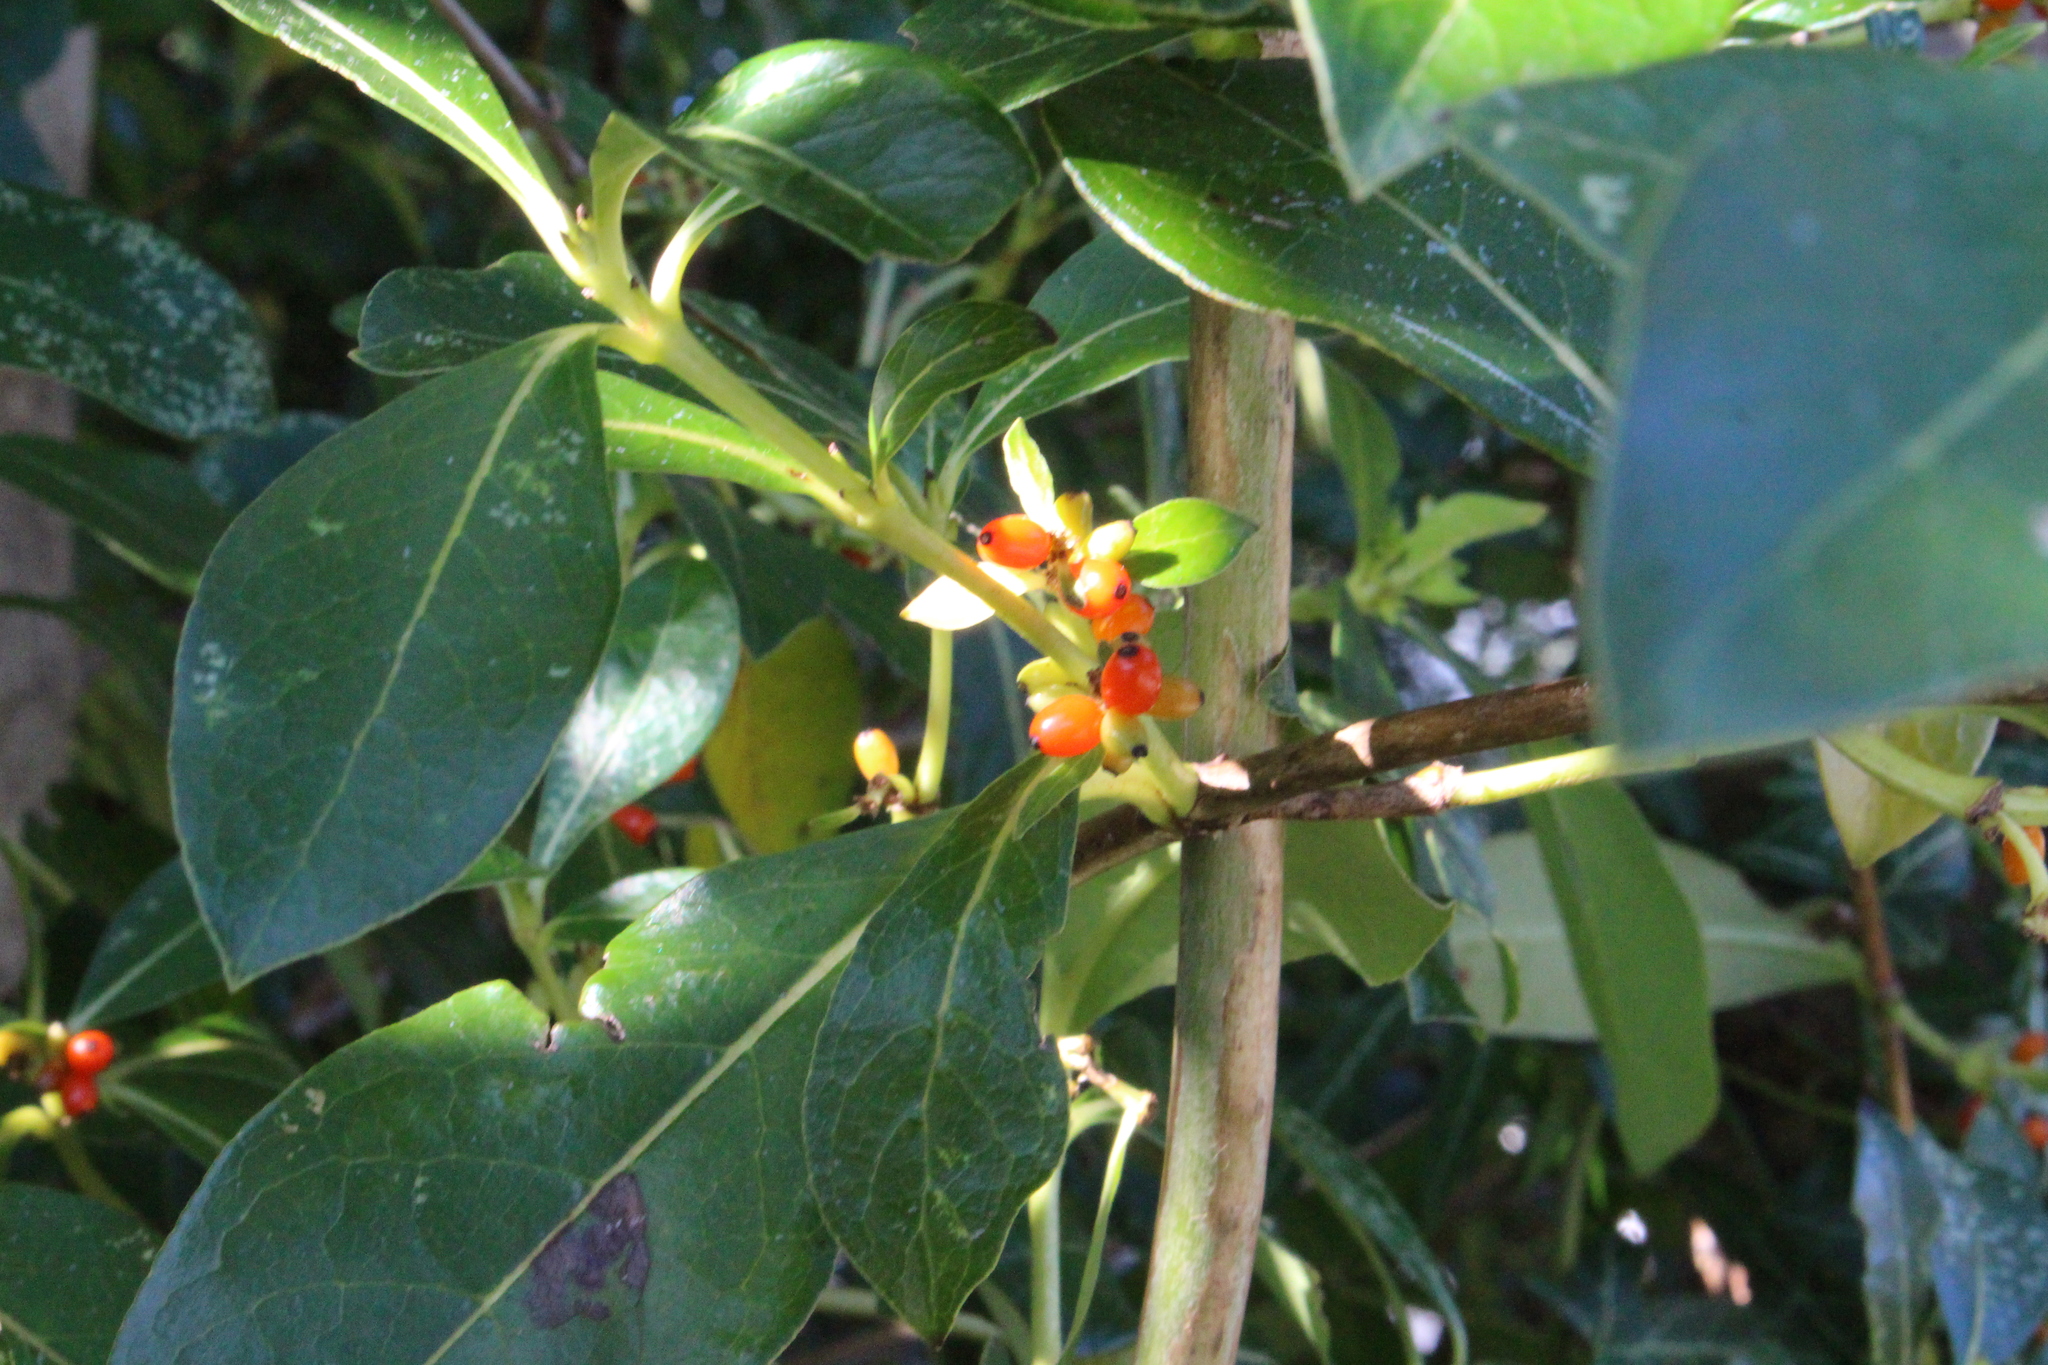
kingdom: Plantae
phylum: Tracheophyta
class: Magnoliopsida
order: Gentianales
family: Rubiaceae
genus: Coprosma
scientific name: Coprosma robusta
